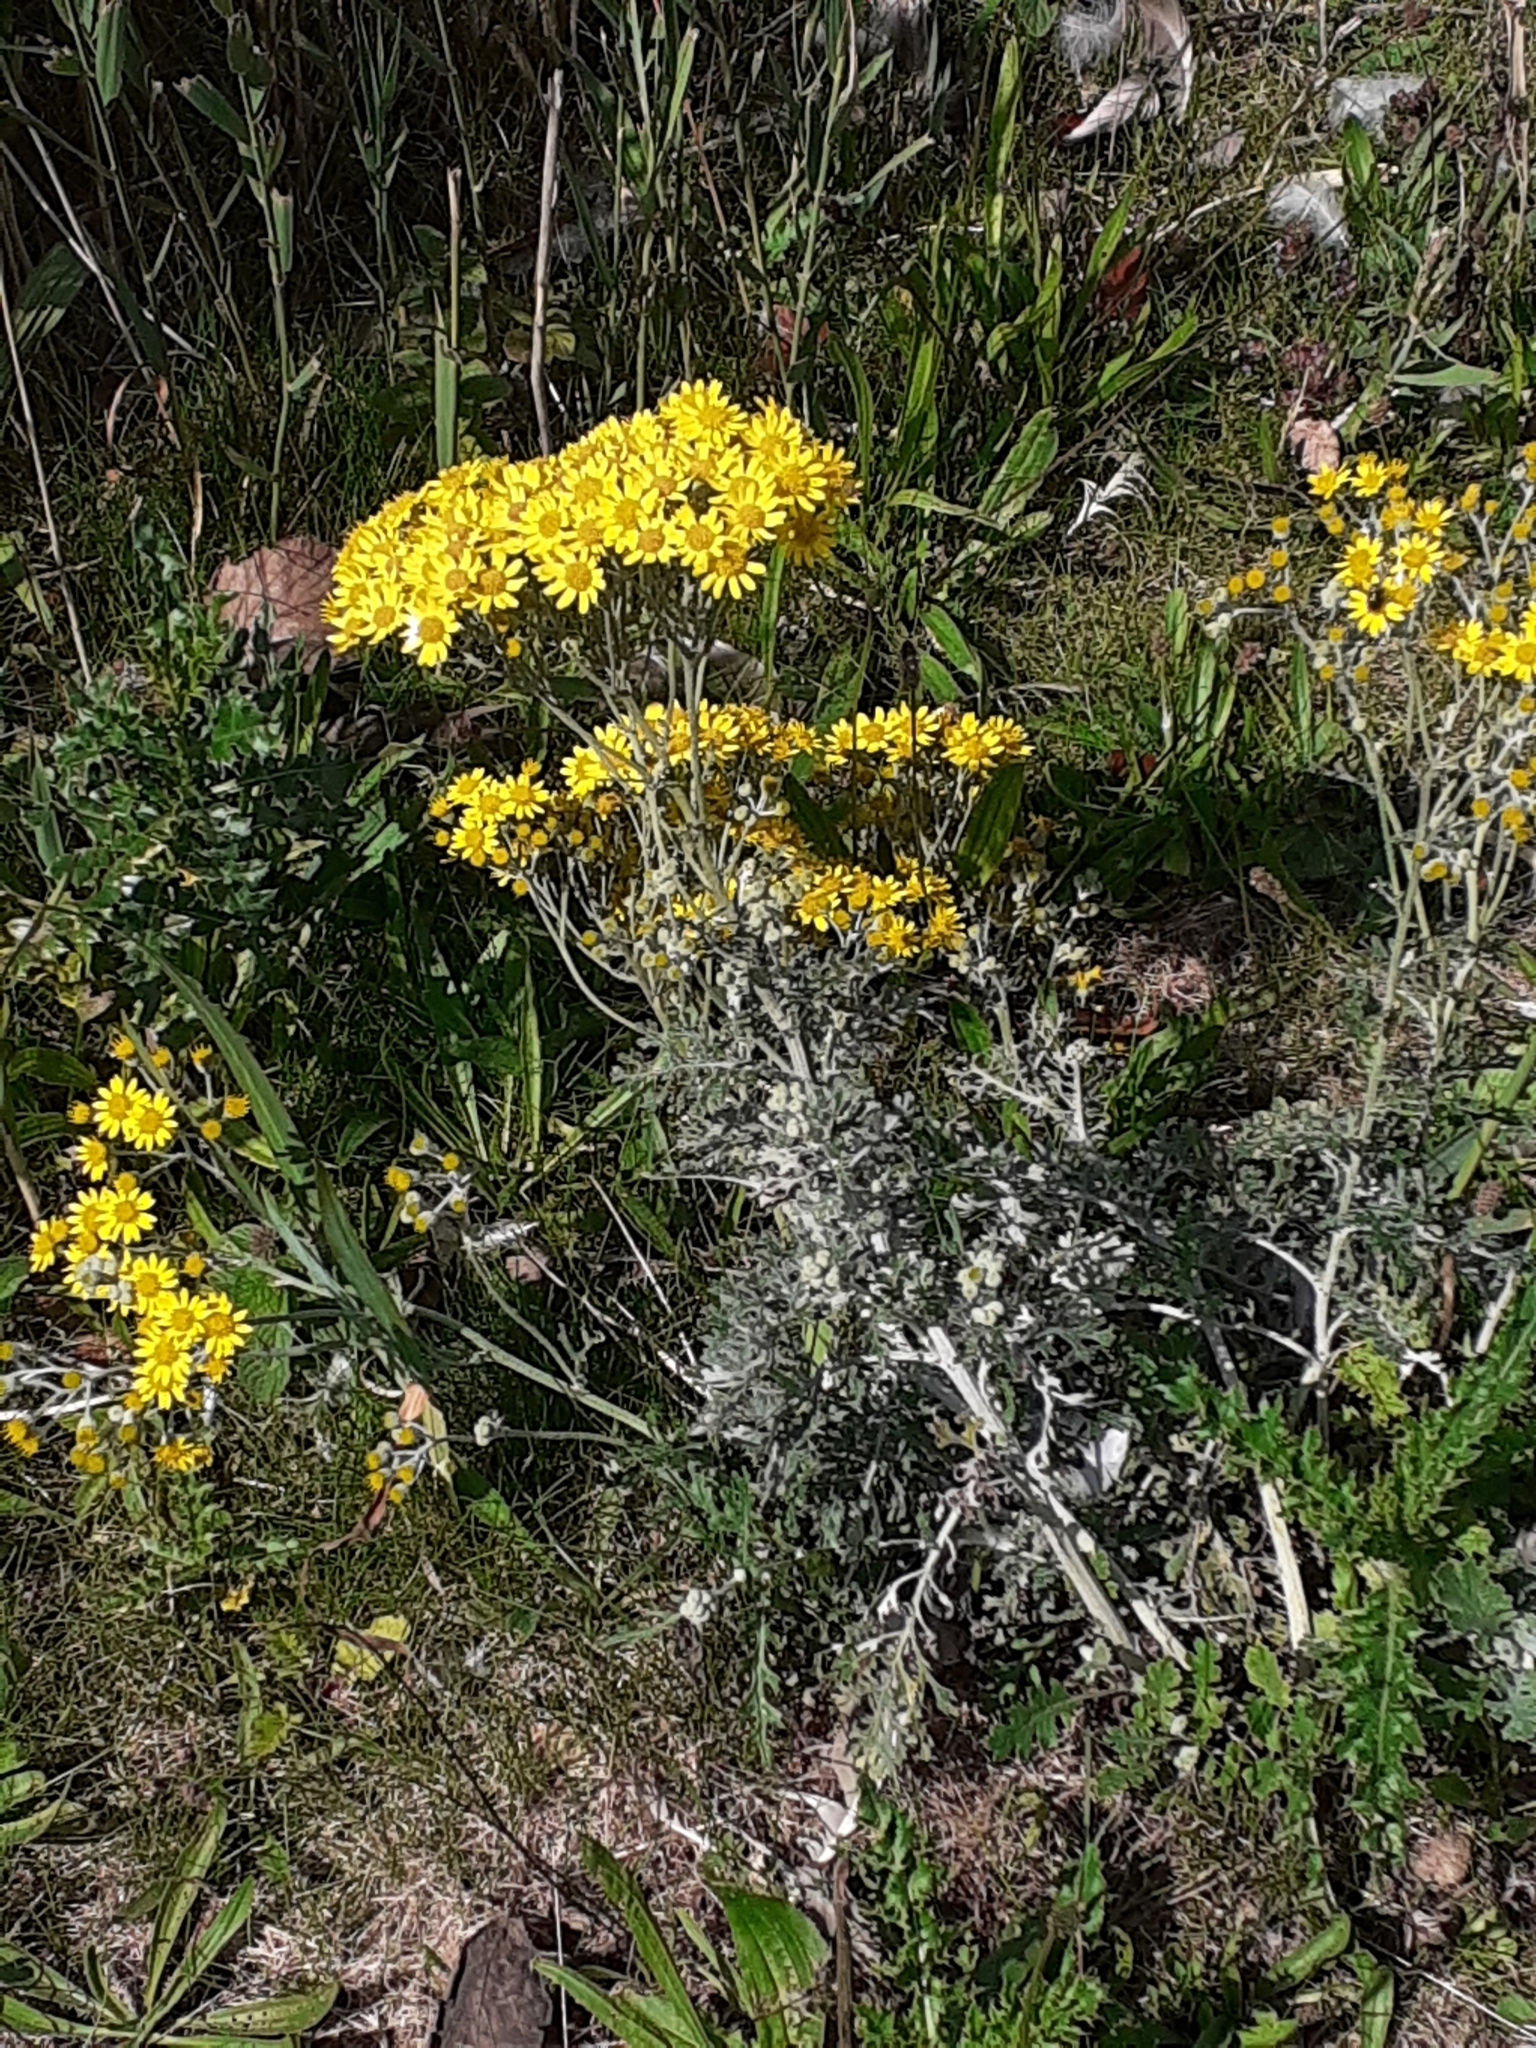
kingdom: Plantae
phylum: Tracheophyta
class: Magnoliopsida
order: Asterales
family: Asteraceae
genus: Jacobaea
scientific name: Jacobaea maritima
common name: Silver ragwort
